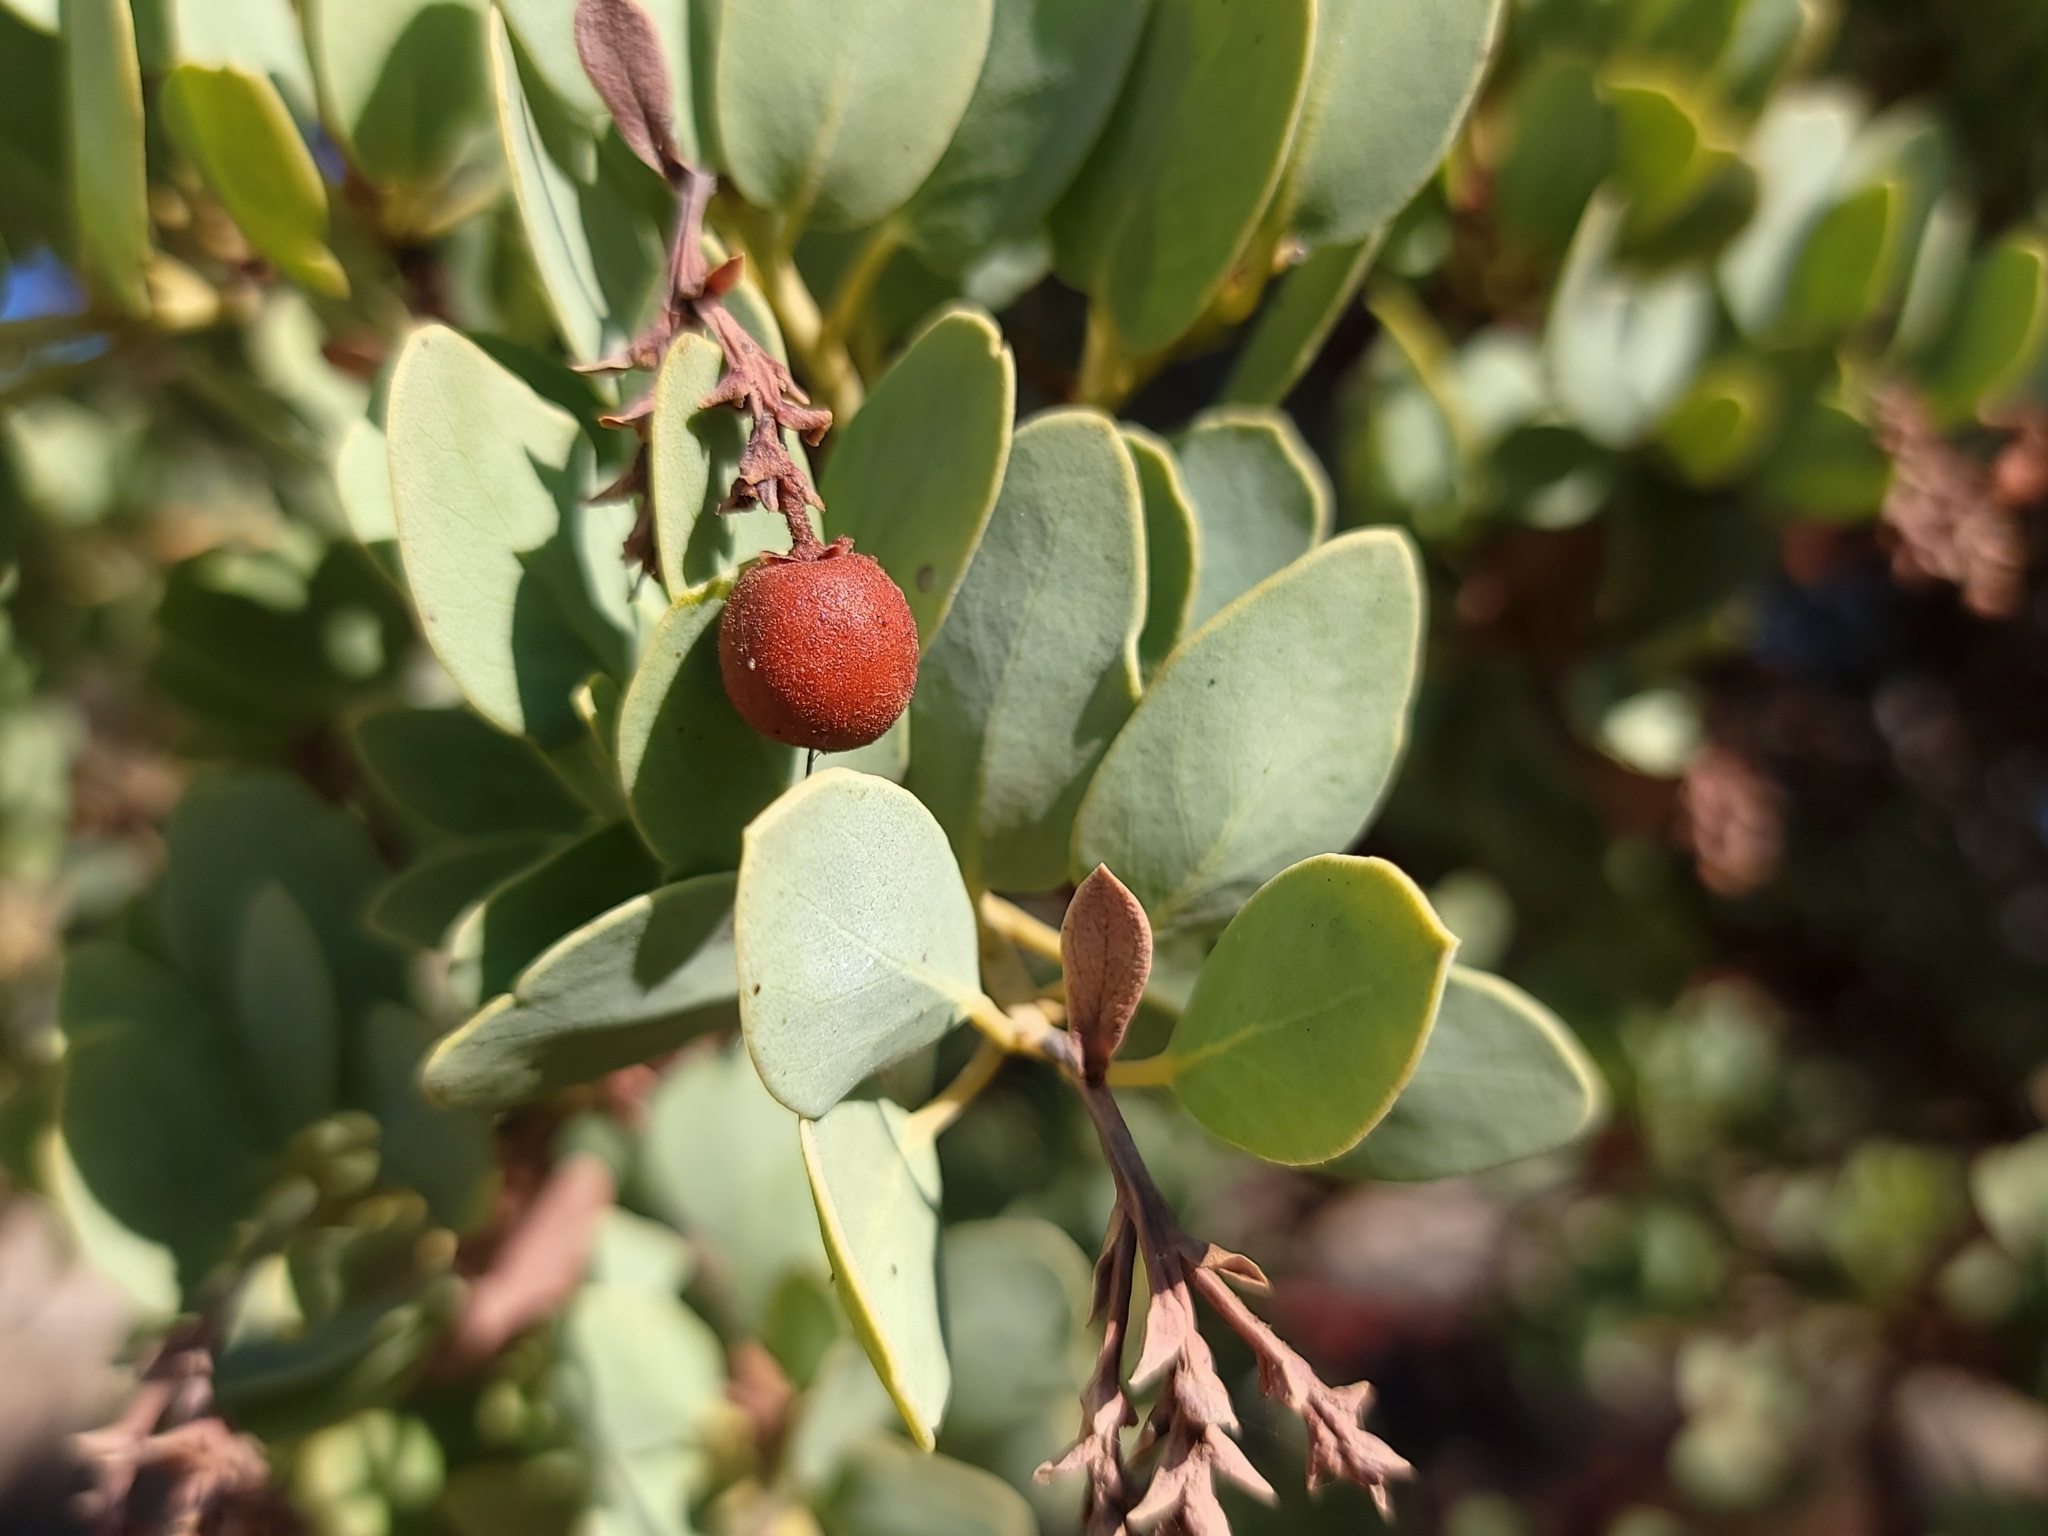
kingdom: Plantae
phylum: Tracheophyta
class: Magnoliopsida
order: Ericales
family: Ericaceae
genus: Arctostaphylos
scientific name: Arctostaphylos glauca
